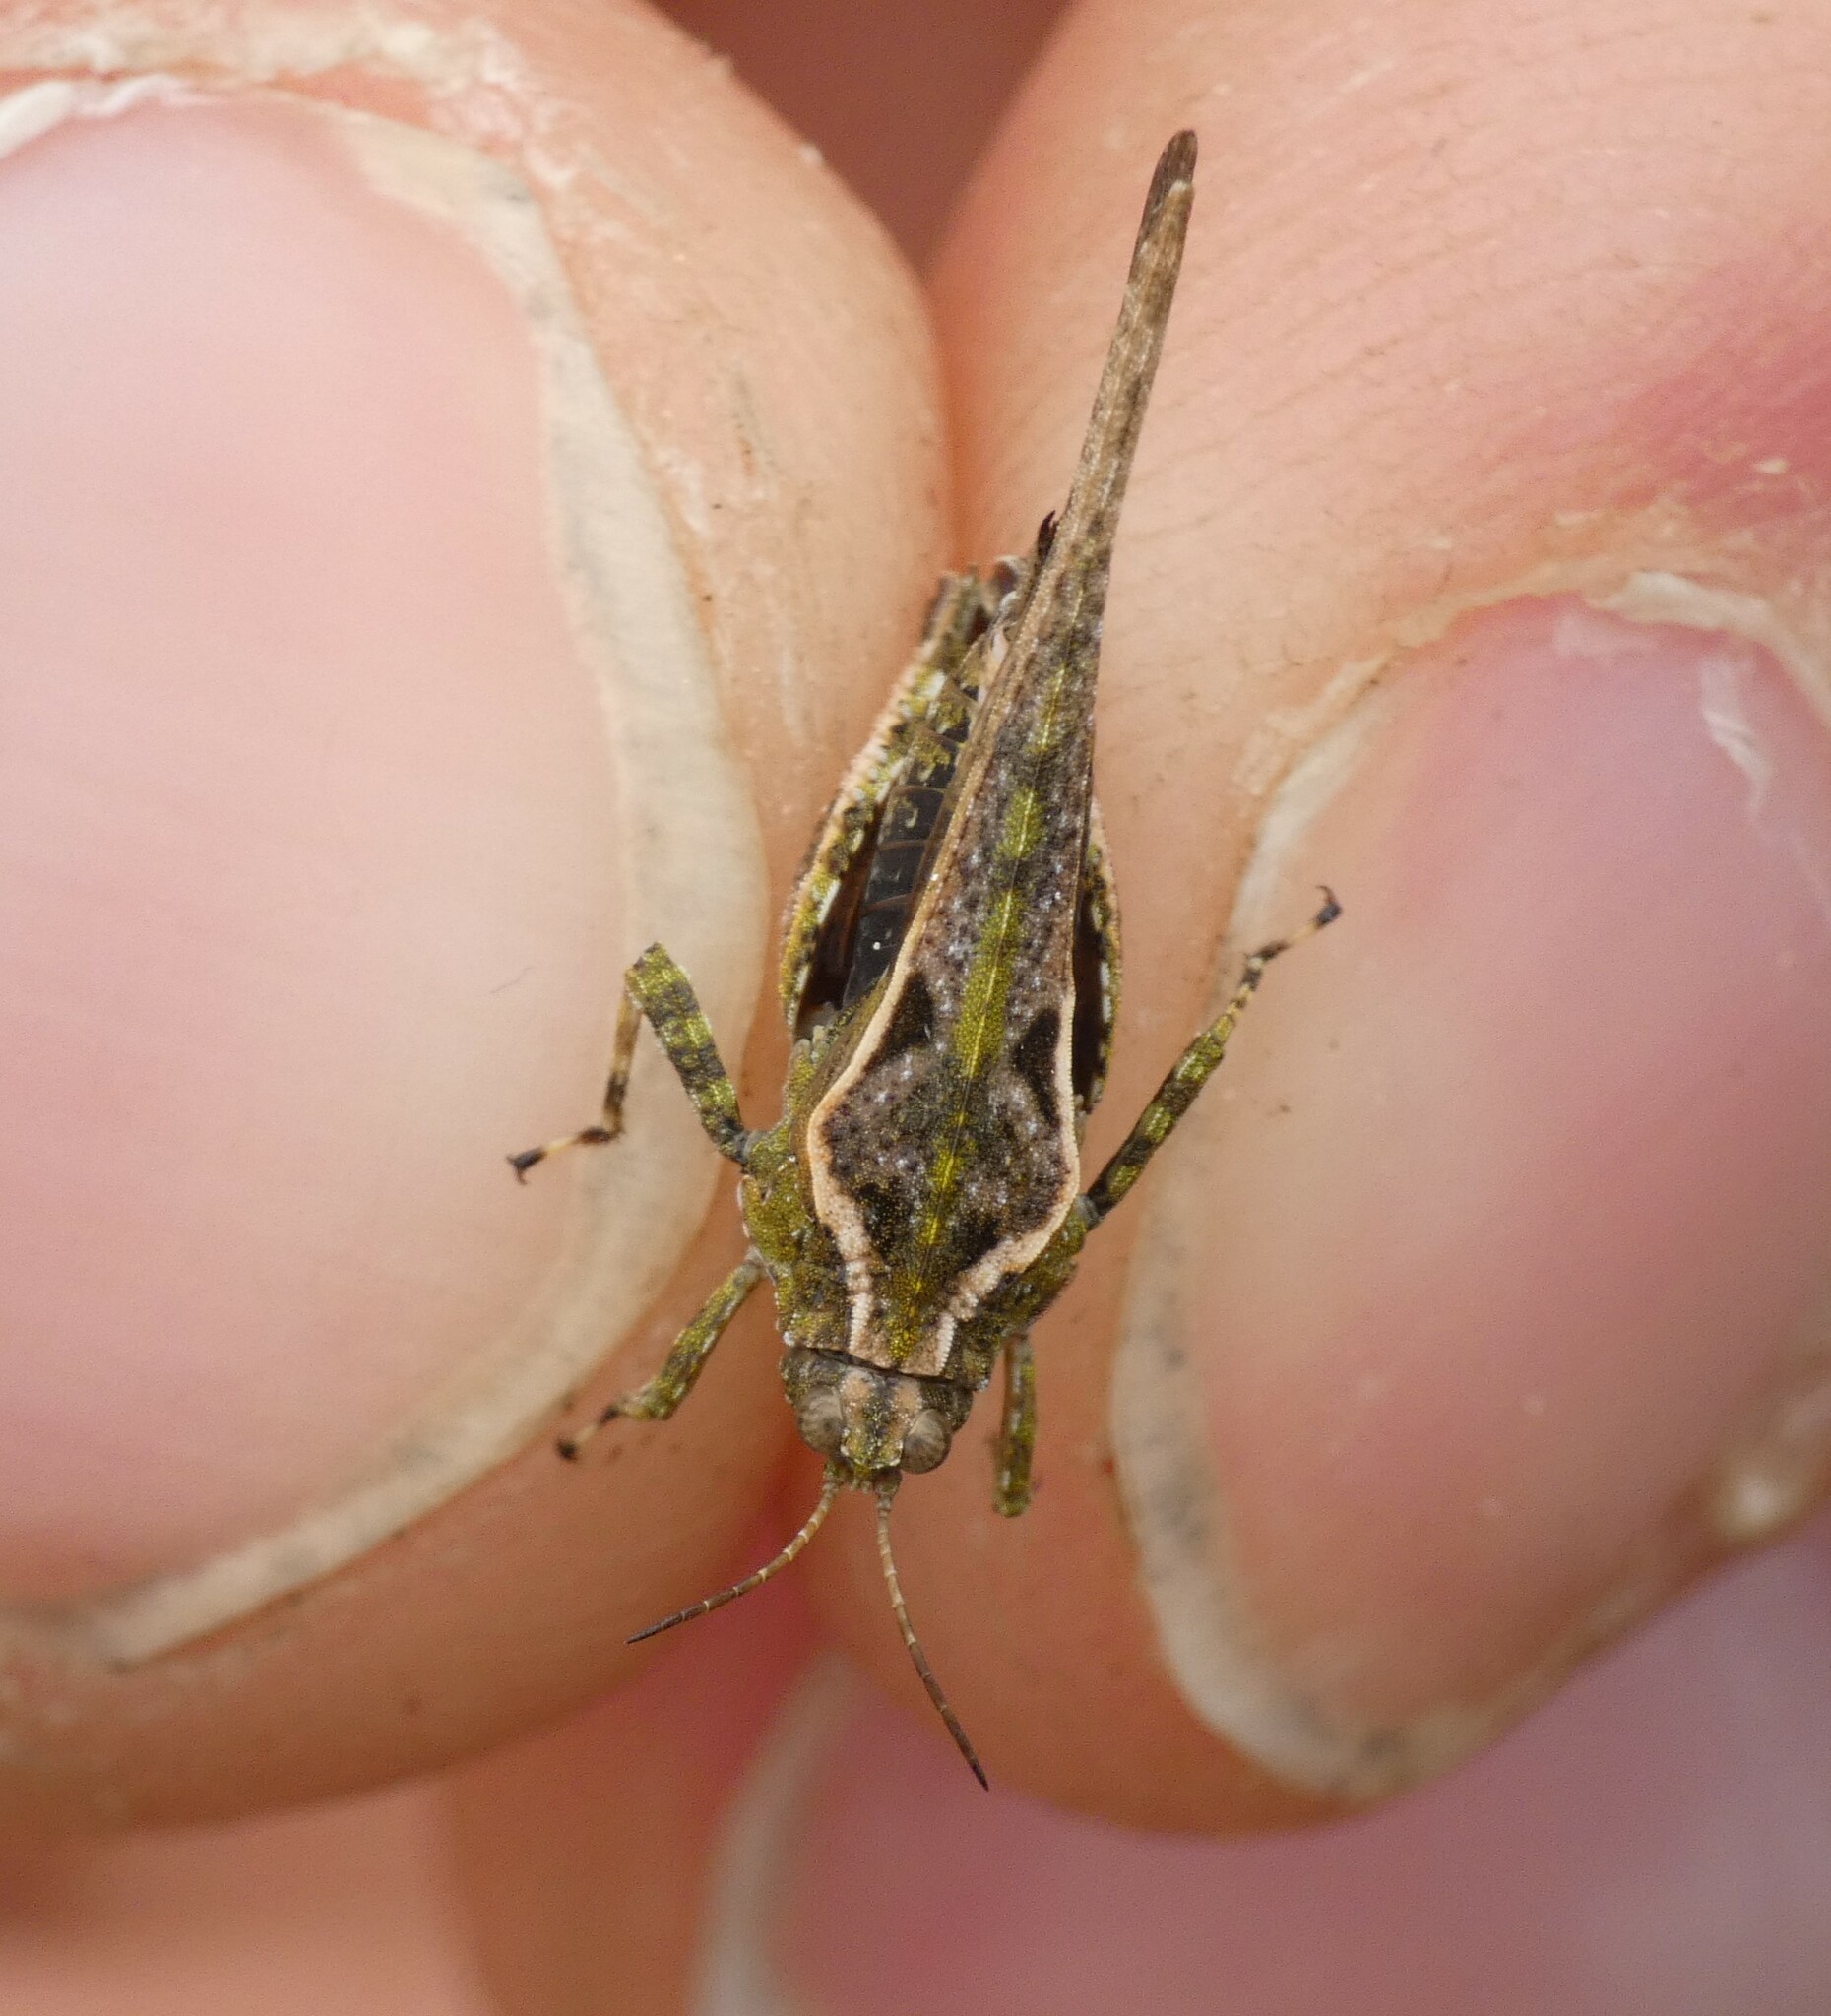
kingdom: Animalia
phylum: Arthropoda
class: Insecta
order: Orthoptera
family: Tetrigidae
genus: Tetrix
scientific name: Tetrix ceperoi
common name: Cepero's ground-hopper
